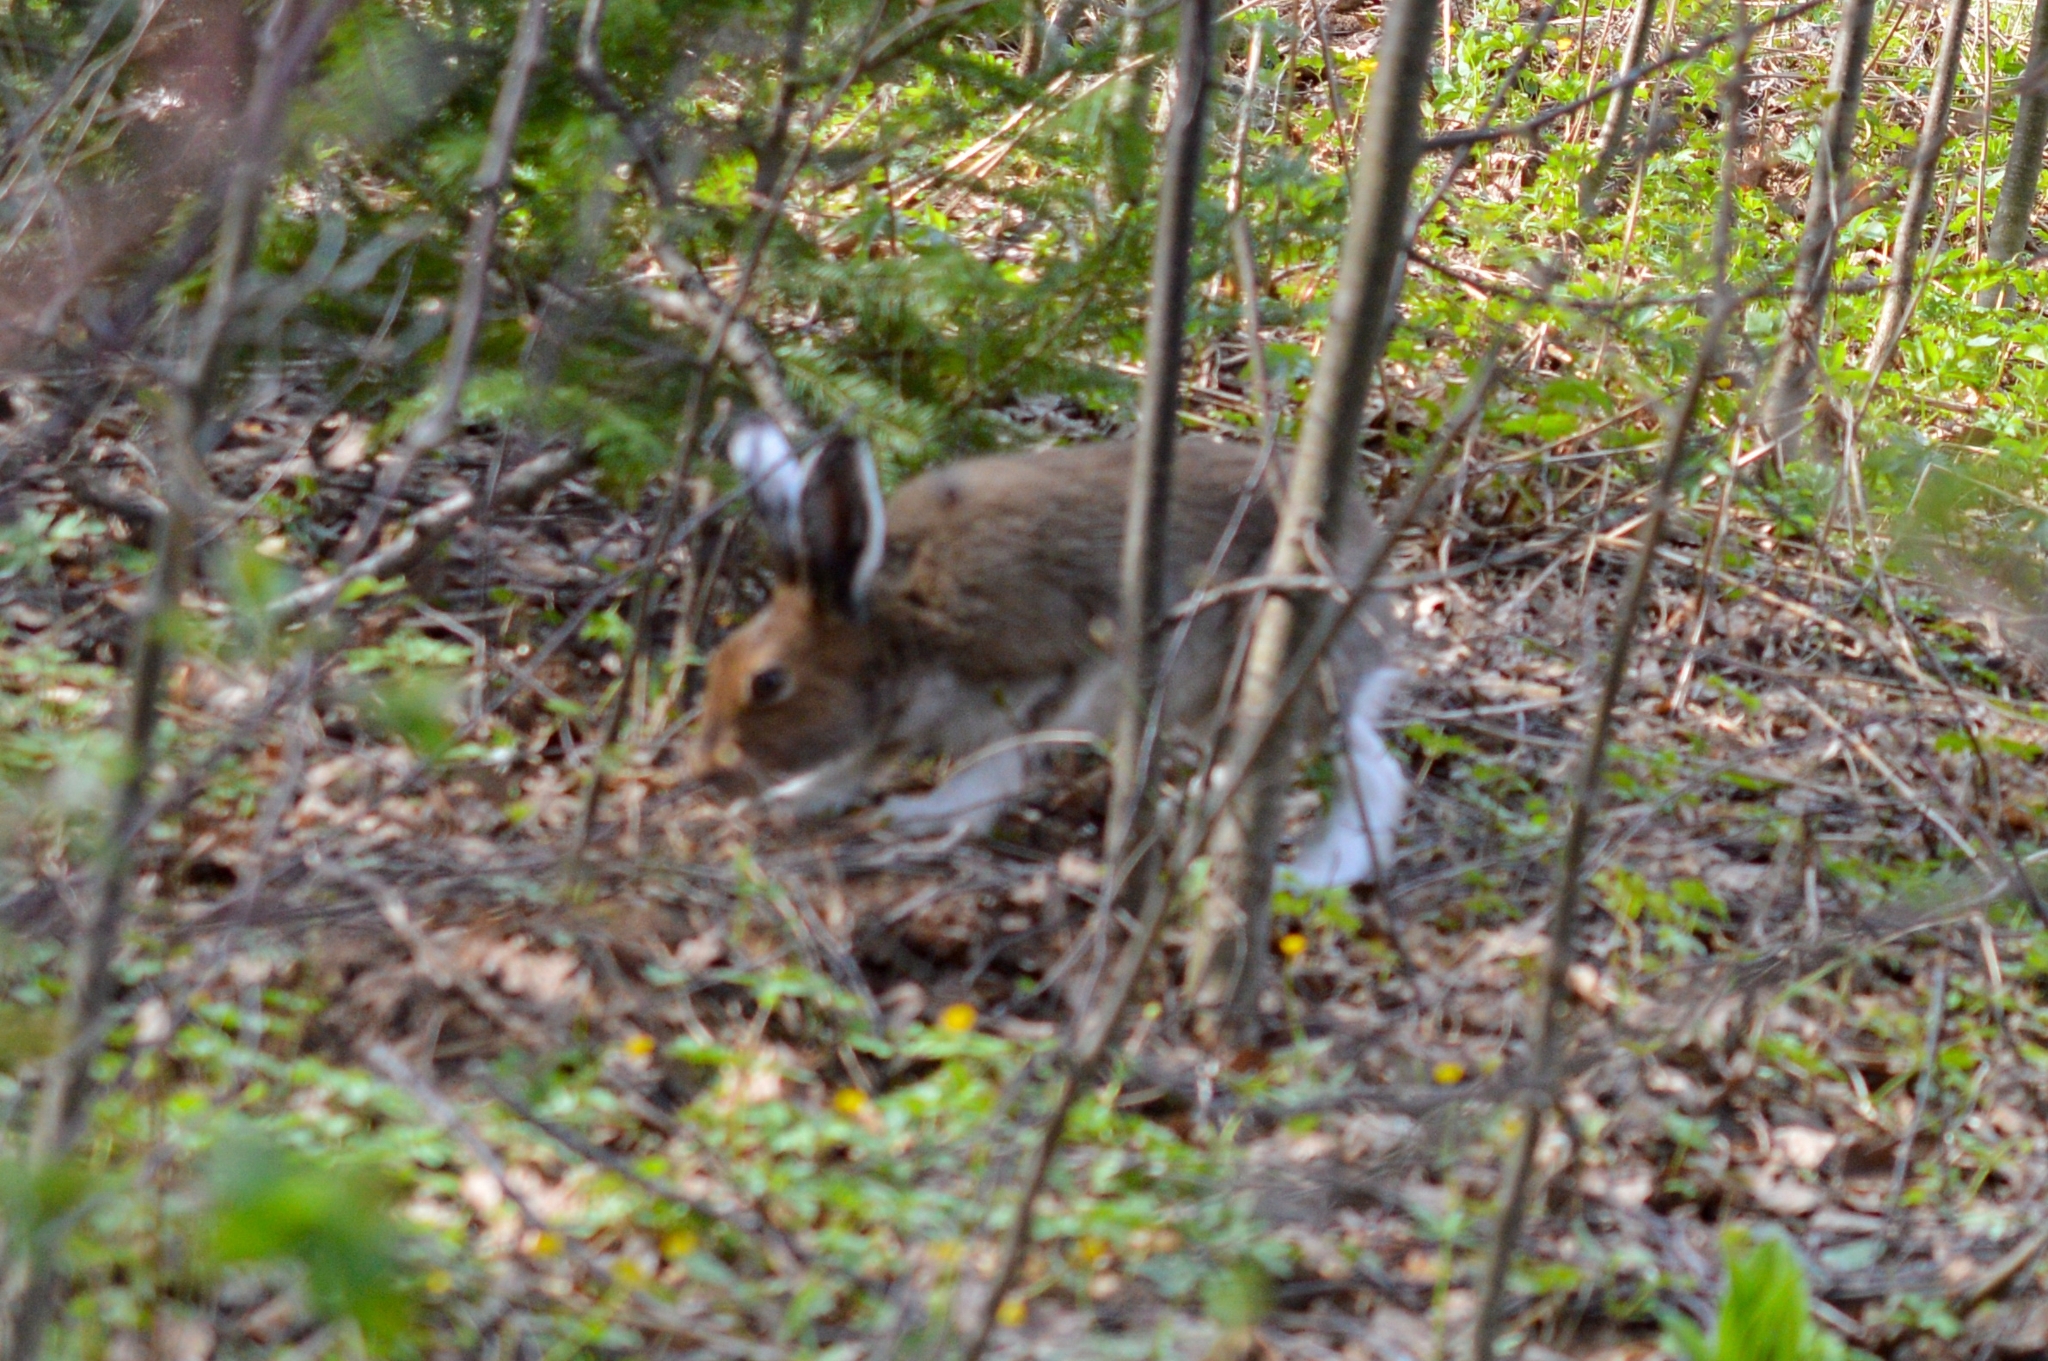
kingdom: Animalia
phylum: Chordata
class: Mammalia
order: Lagomorpha
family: Leporidae
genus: Lepus
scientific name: Lepus timidus
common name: Mountain hare
